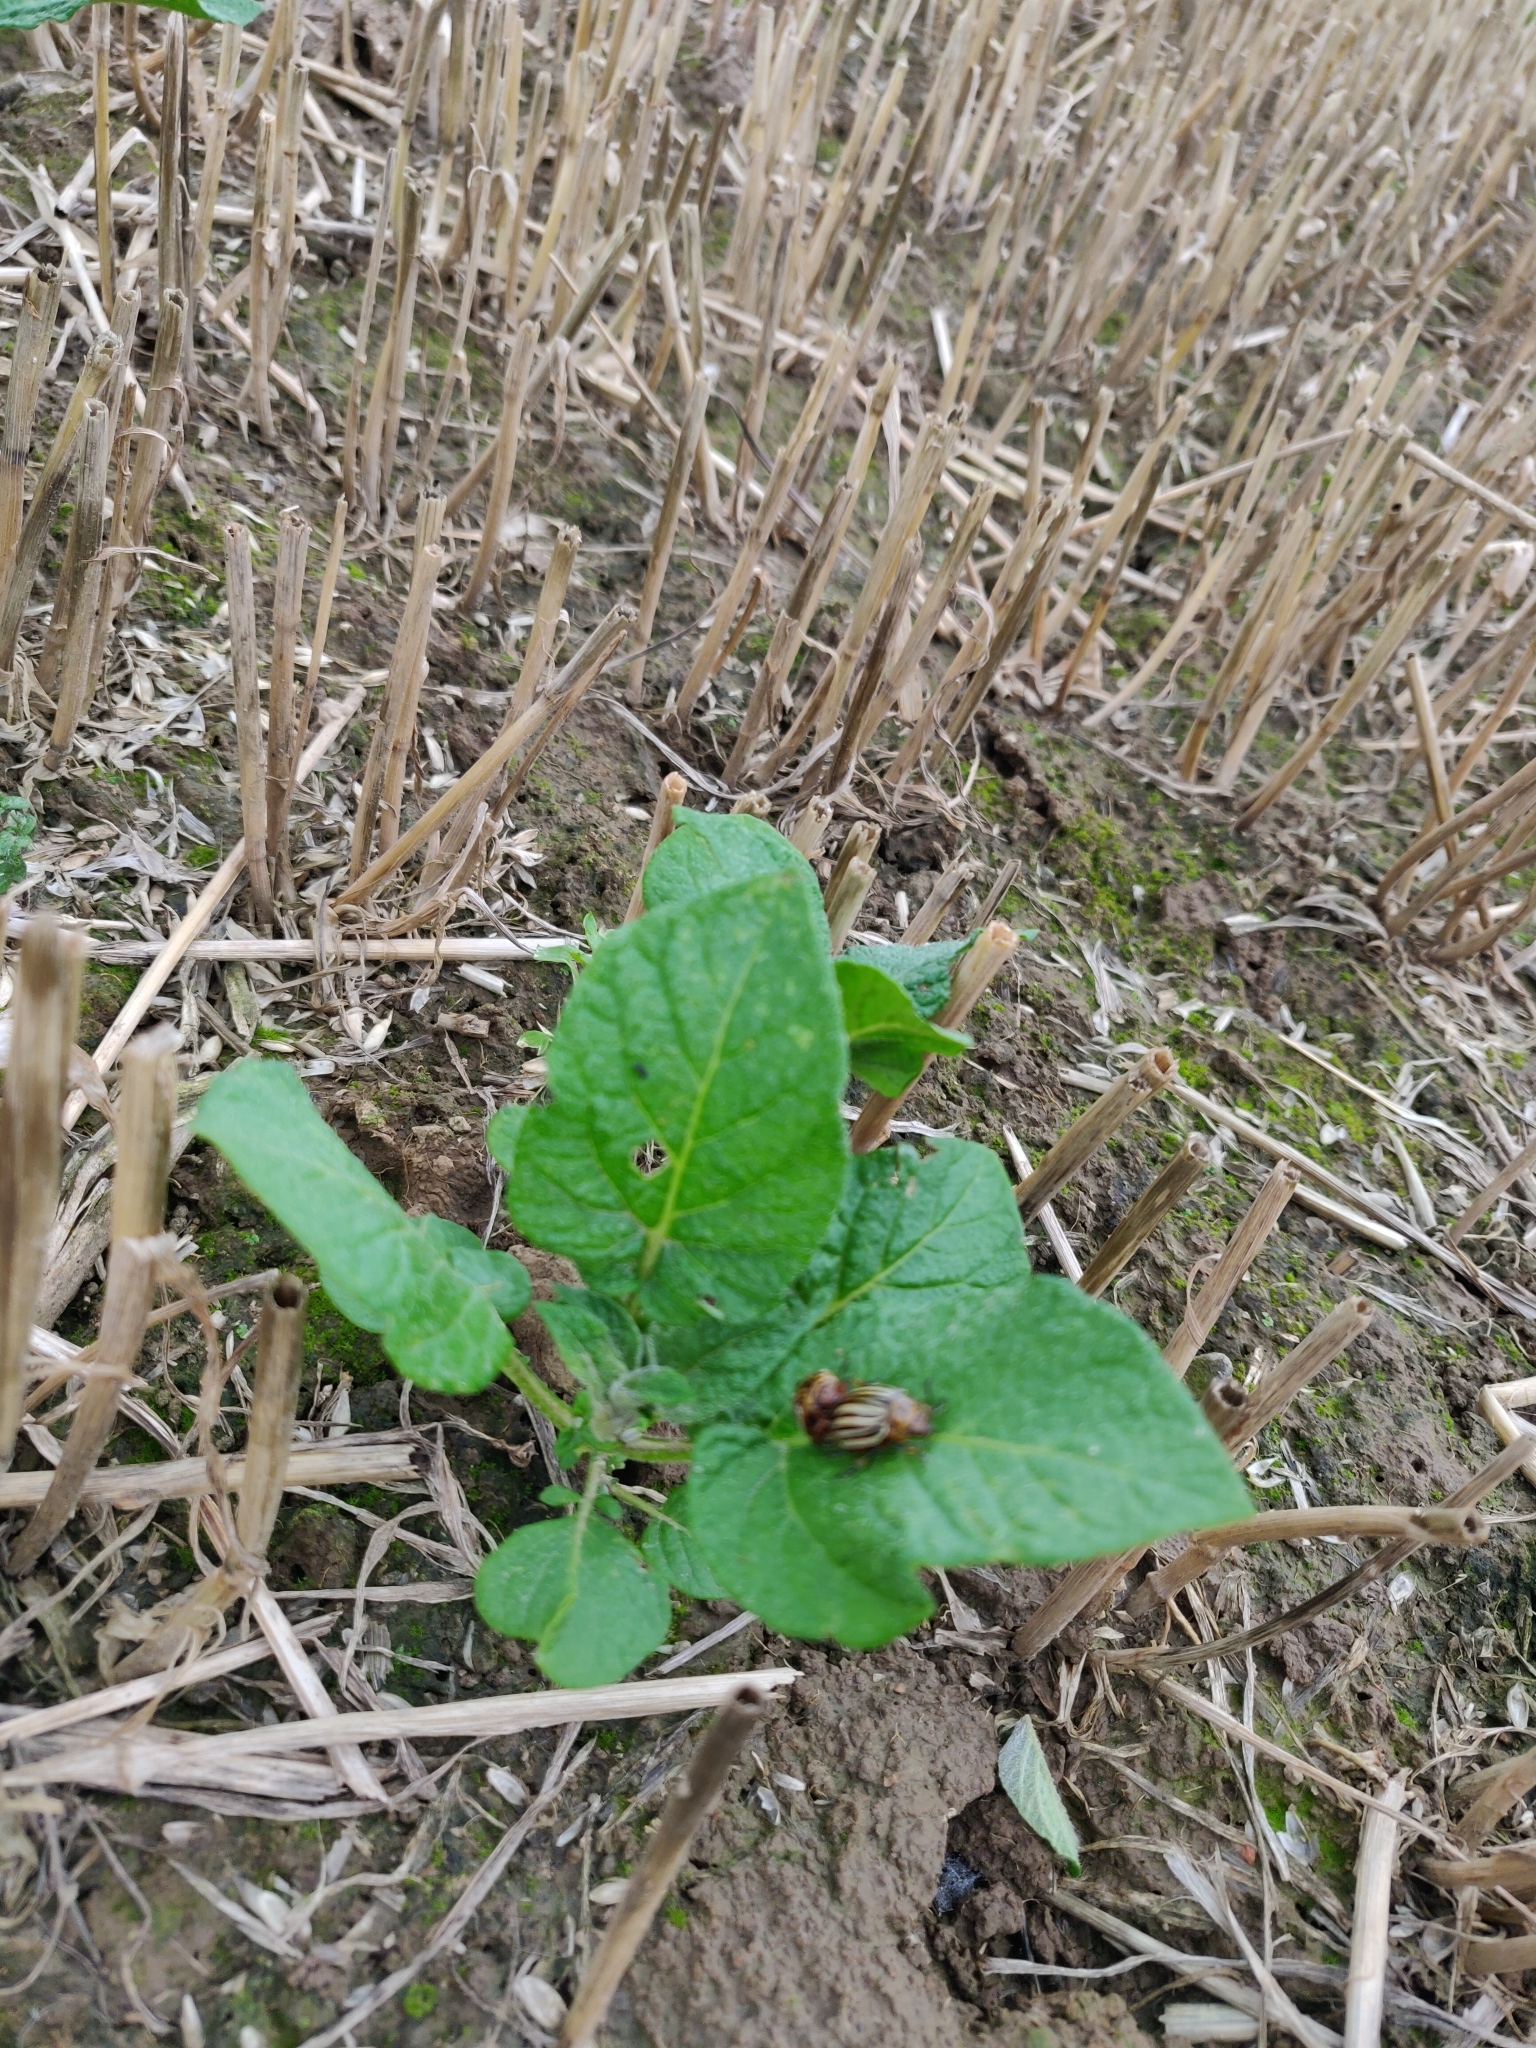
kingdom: Animalia
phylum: Arthropoda
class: Insecta
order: Coleoptera
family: Chrysomelidae
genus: Leptinotarsa
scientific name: Leptinotarsa decemlineata
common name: Colorado potato beetle
